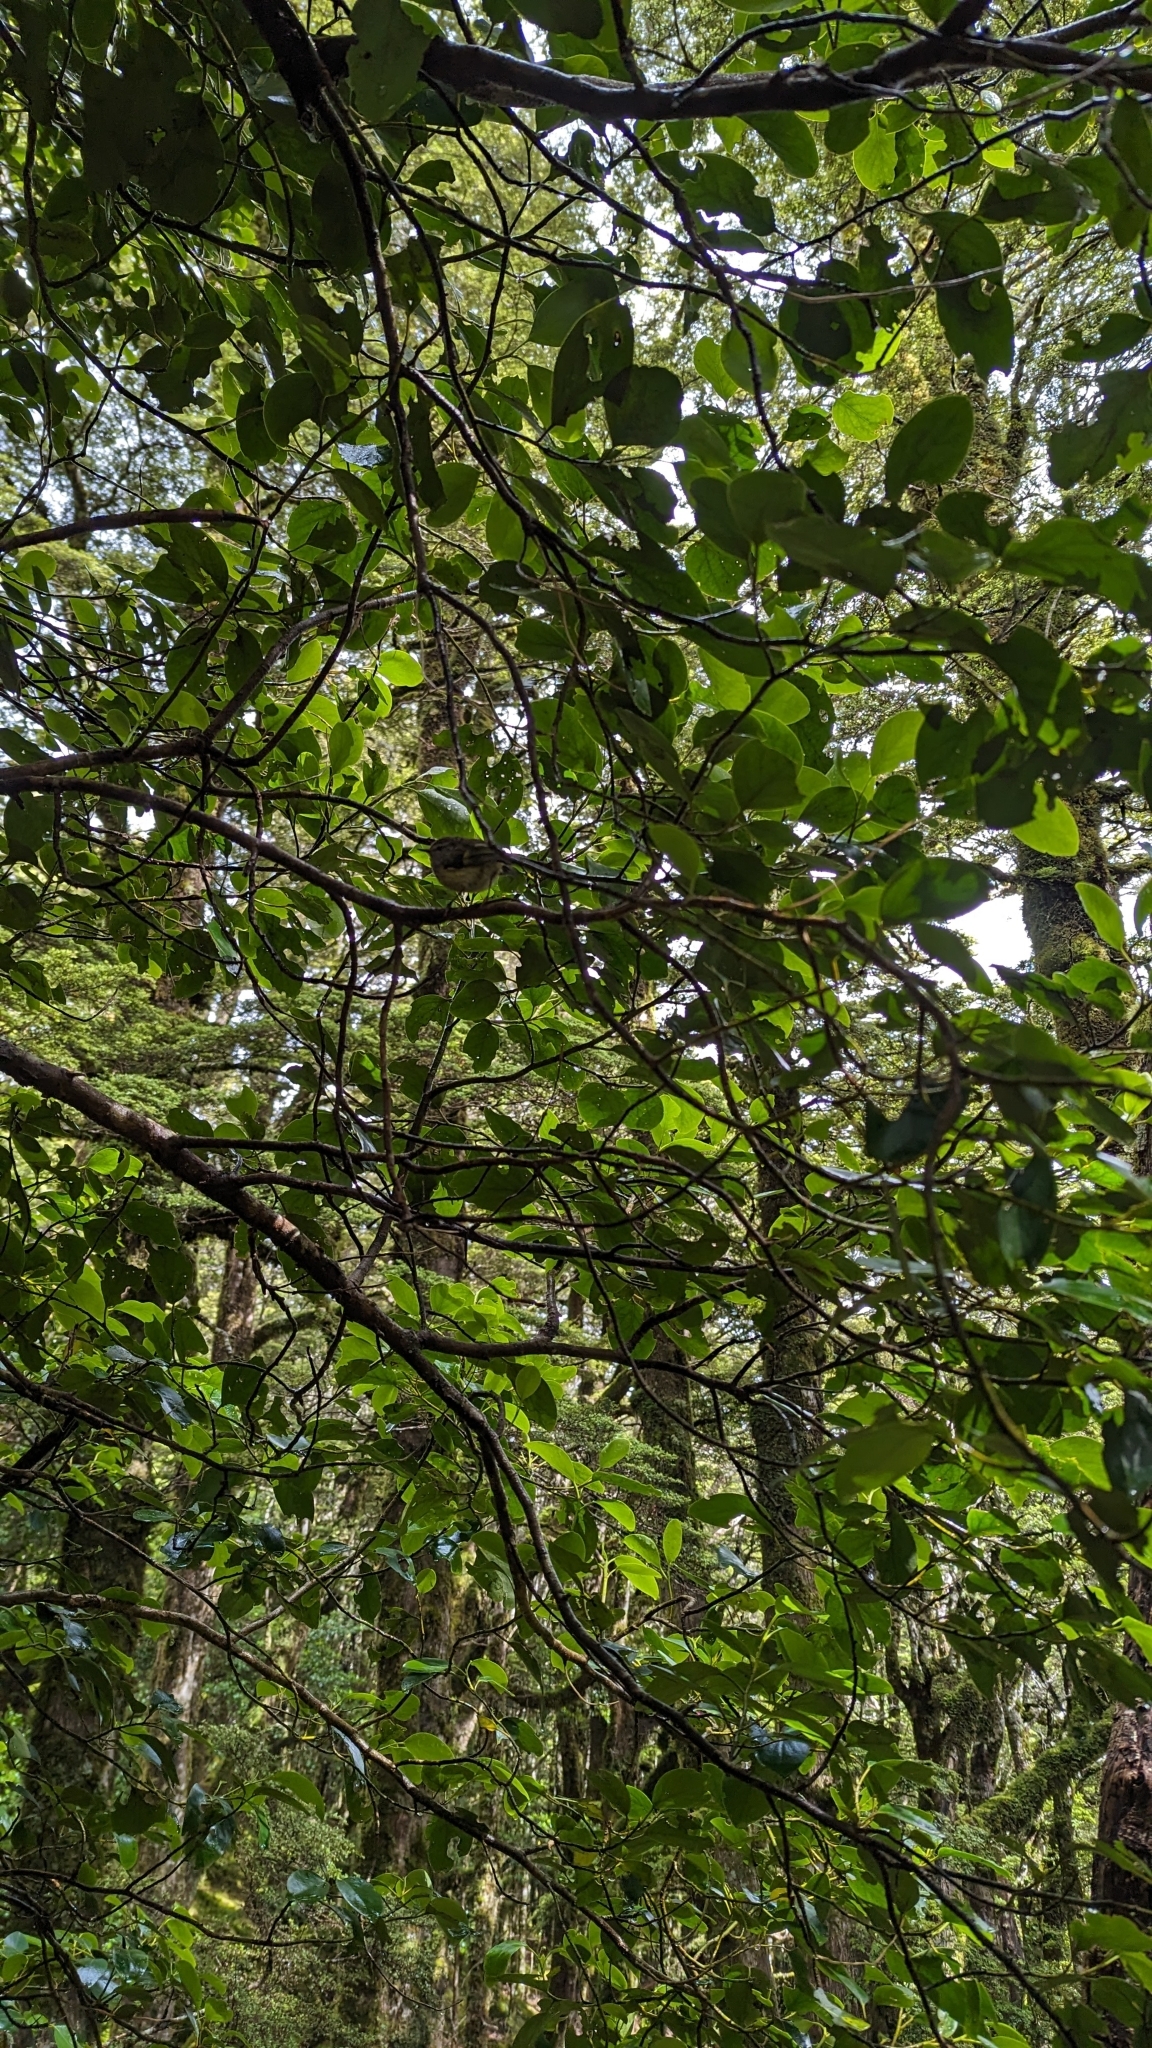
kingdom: Animalia
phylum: Chordata
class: Aves
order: Passeriformes
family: Acanthisittidae
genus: Acanthisitta
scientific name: Acanthisitta chloris
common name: Rifleman
